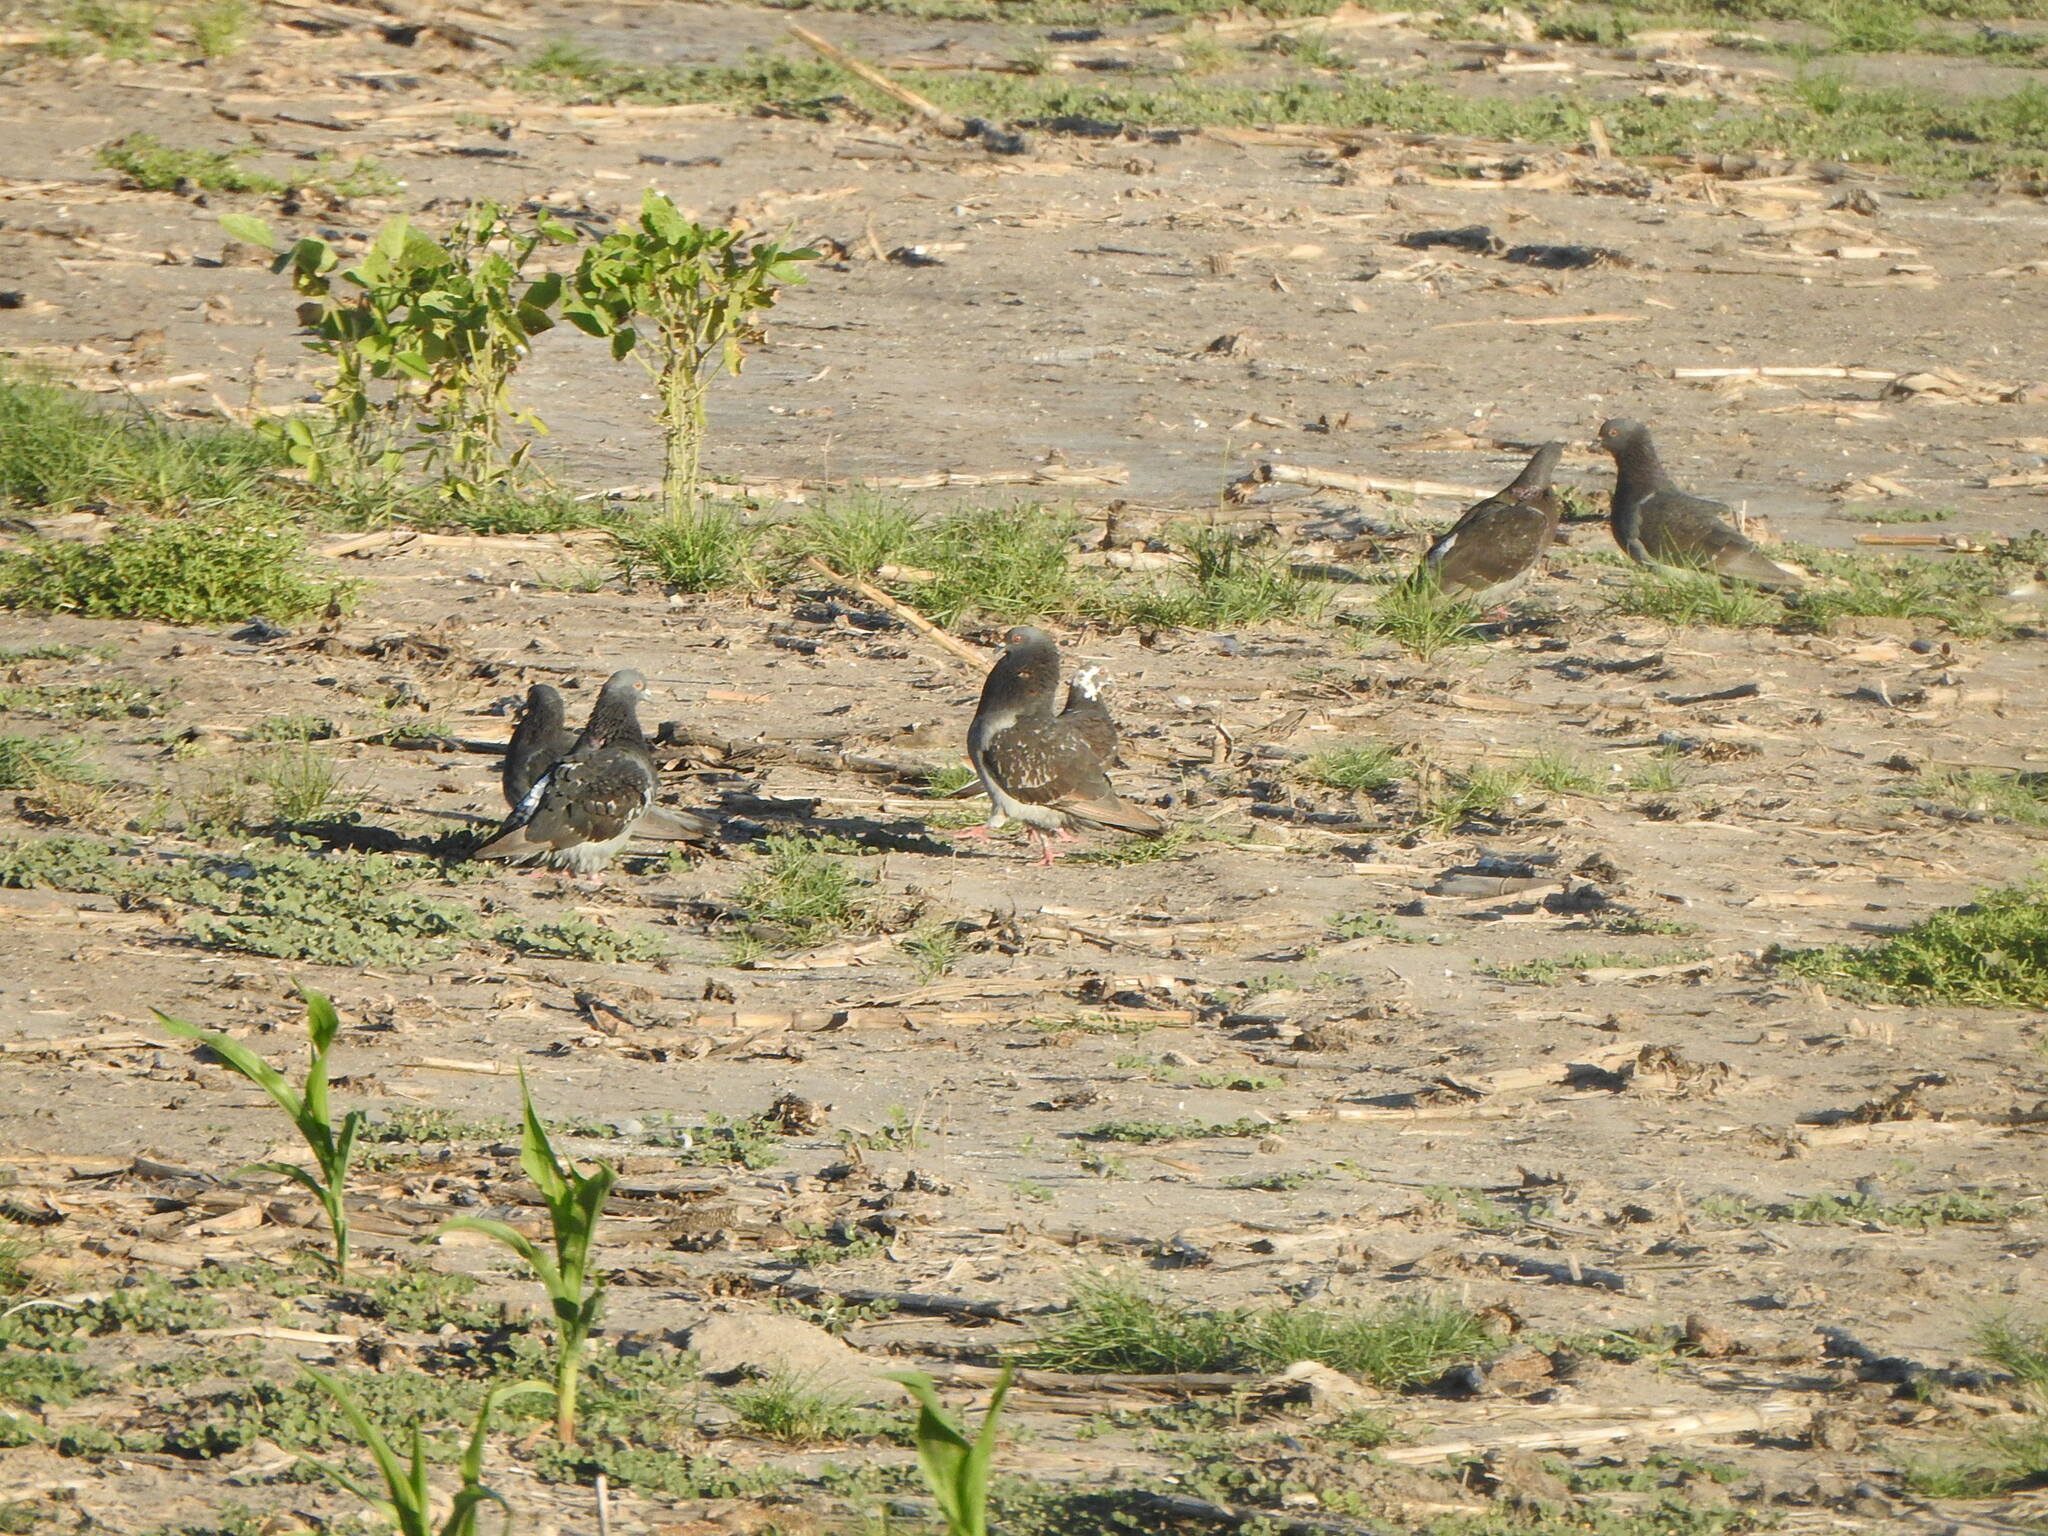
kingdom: Animalia
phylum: Chordata
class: Aves
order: Columbiformes
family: Columbidae
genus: Columba
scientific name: Columba livia
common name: Rock pigeon
